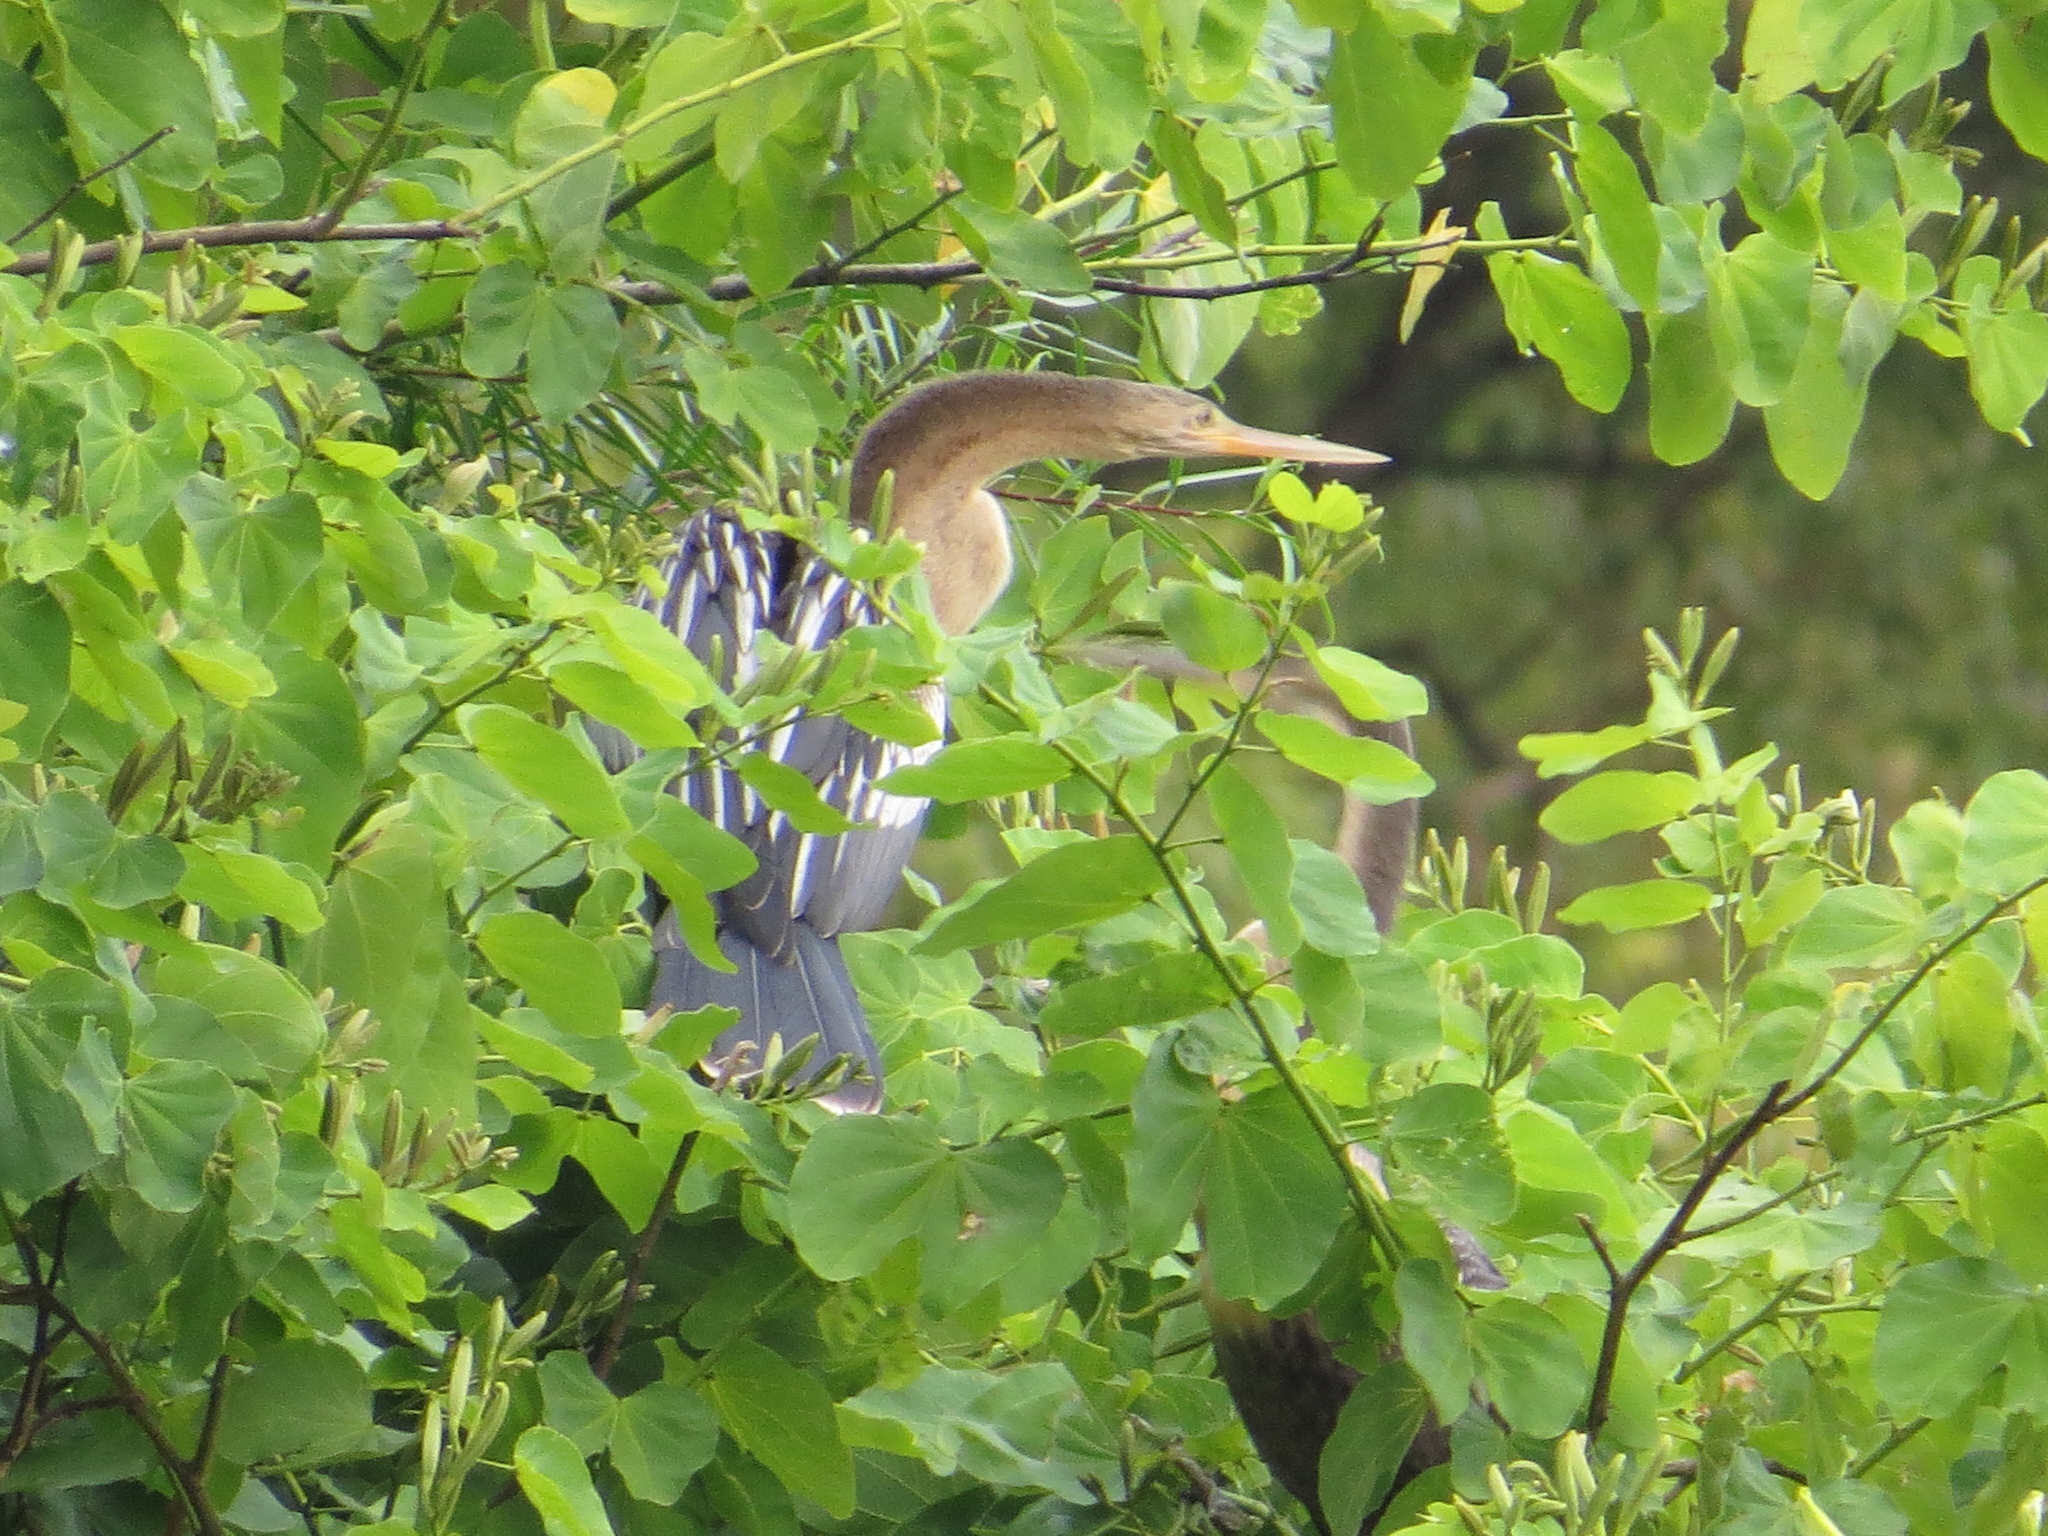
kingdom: Animalia
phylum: Chordata
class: Aves
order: Suliformes
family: Anhingidae
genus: Anhinga
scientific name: Anhinga anhinga
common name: Anhinga
